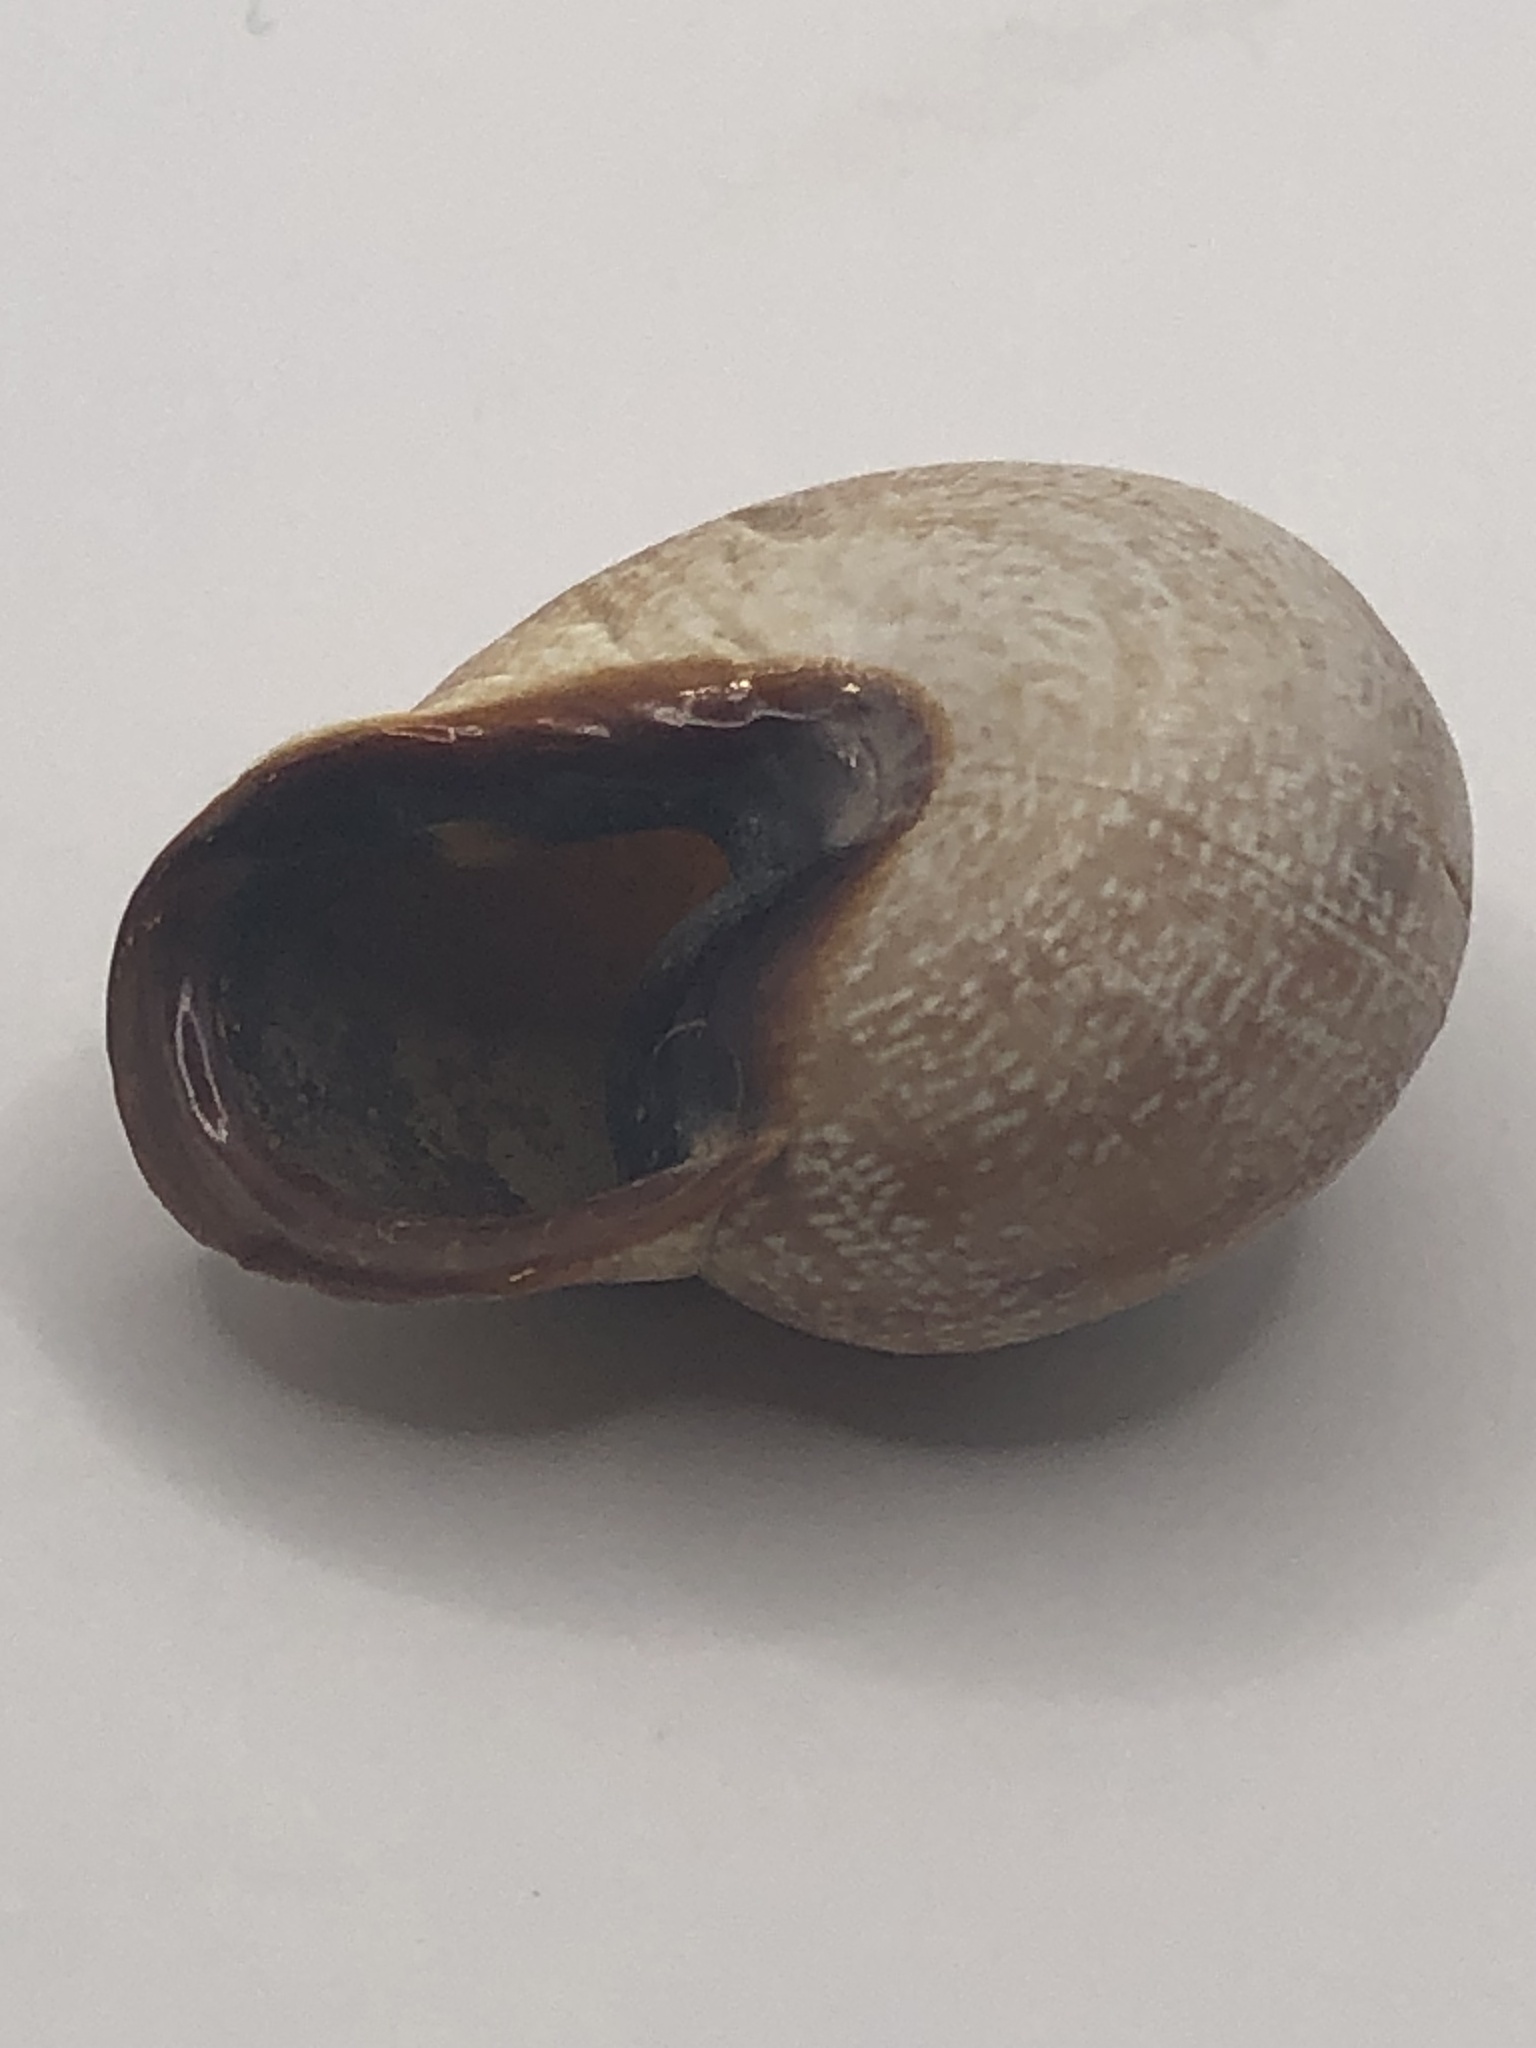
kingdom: Animalia
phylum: Mollusca
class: Gastropoda
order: Stylommatophora
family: Zachrysiidae
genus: Zachrysia
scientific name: Zachrysia provisoria
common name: Garden zachrysia
